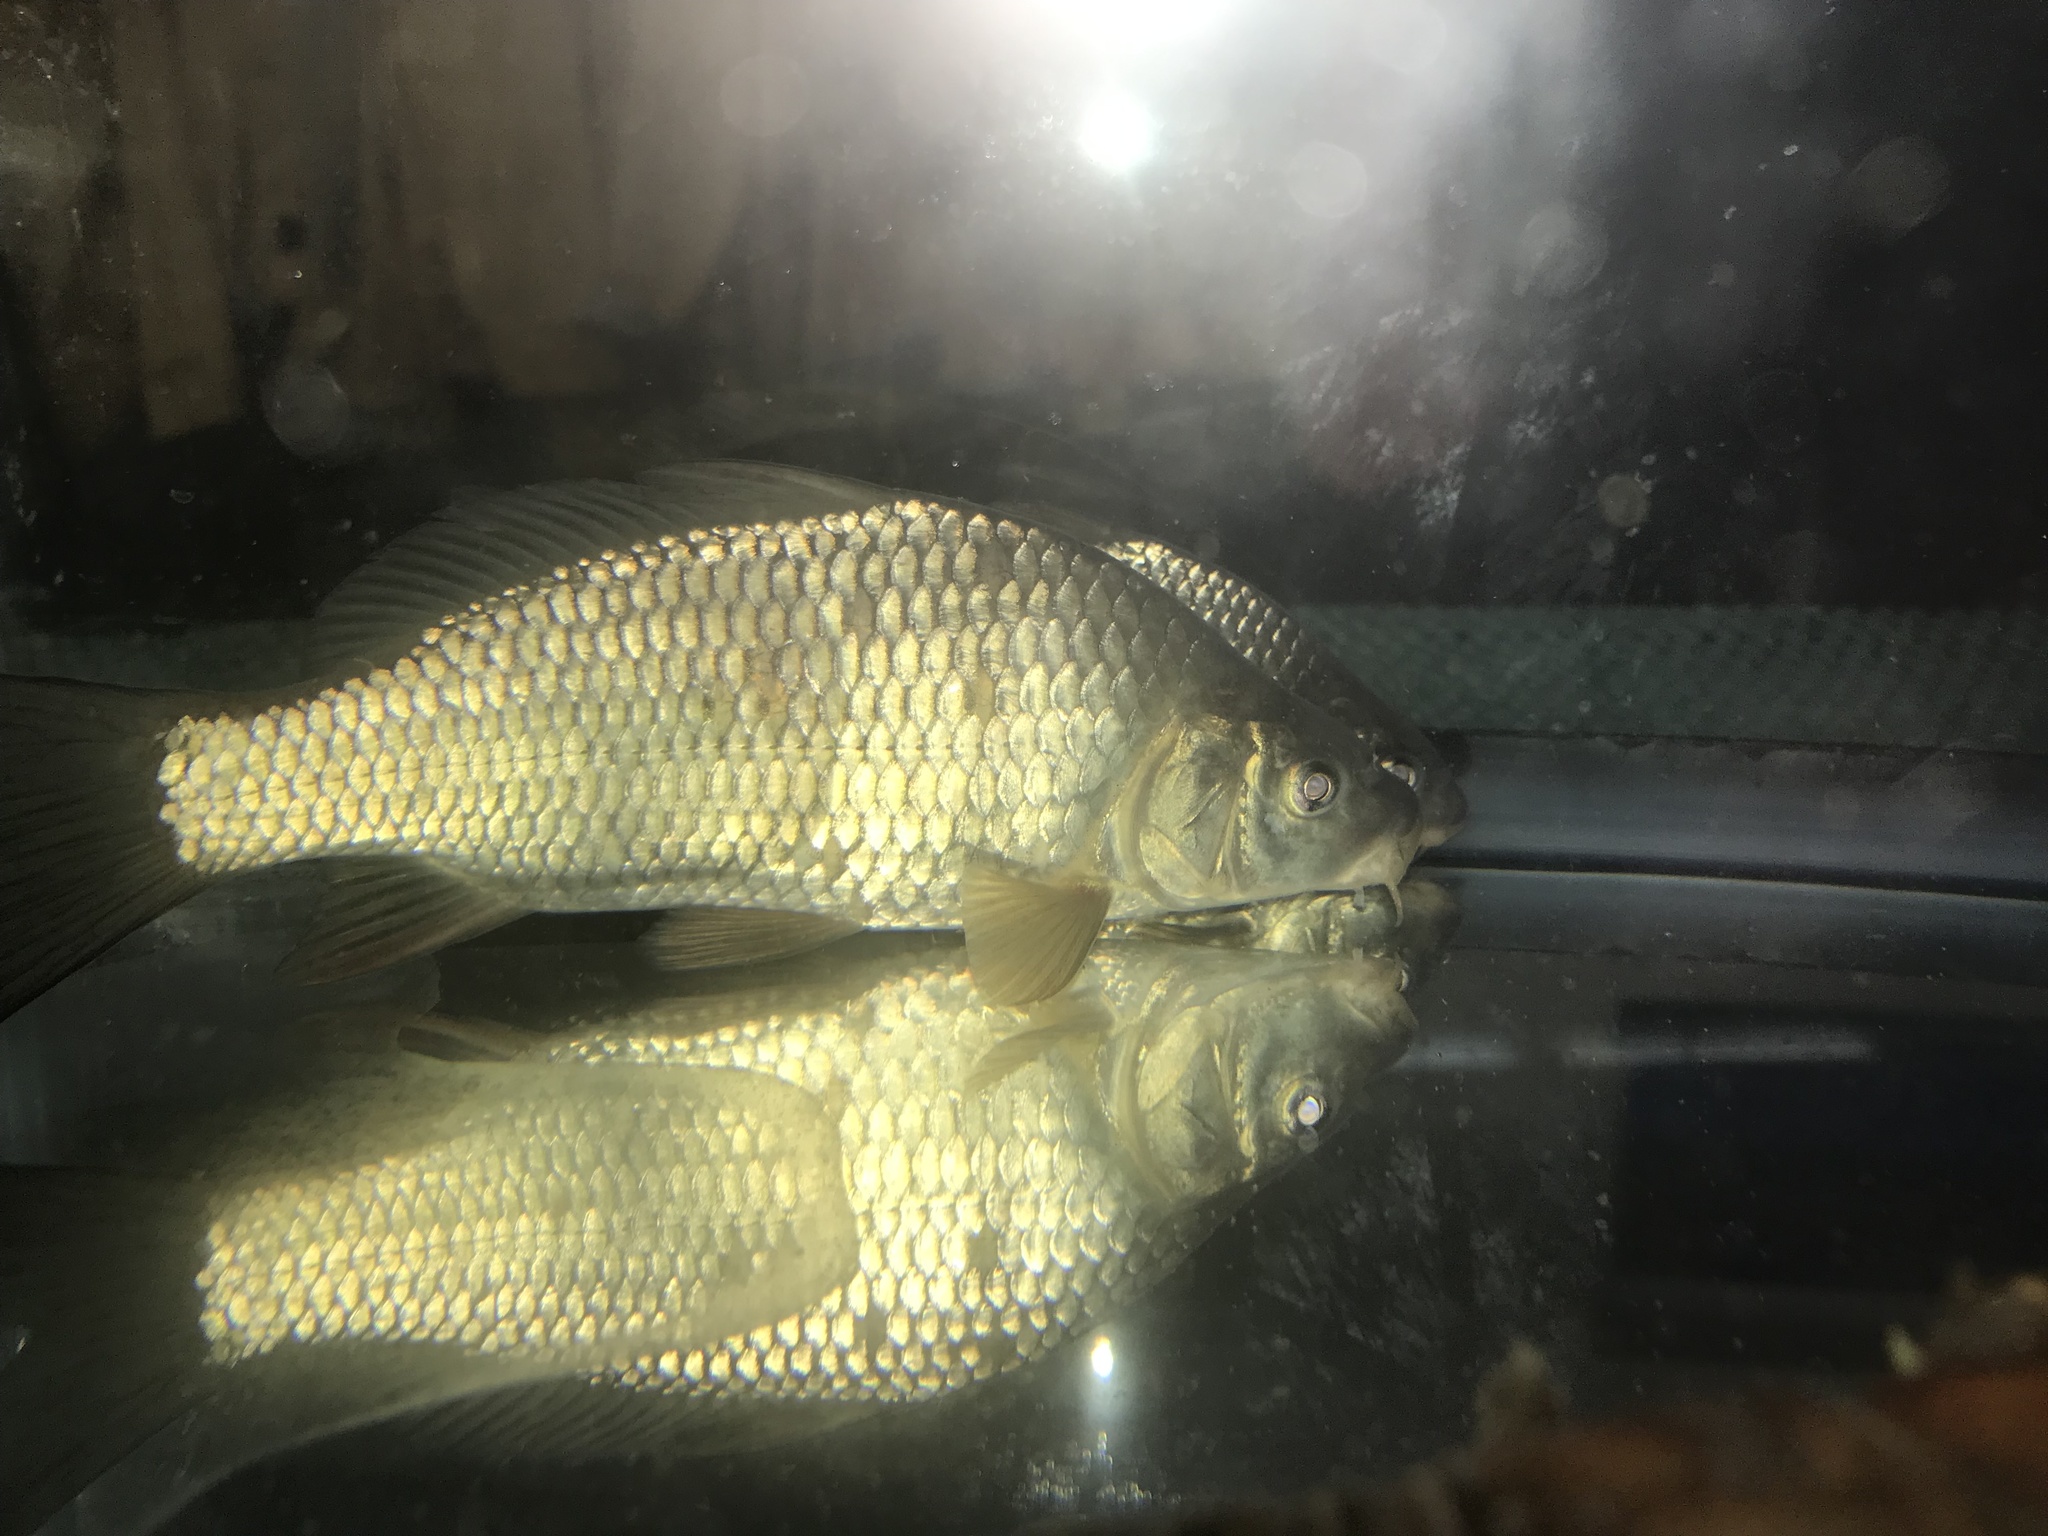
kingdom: Animalia
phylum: Chordata
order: Cypriniformes
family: Cyprinidae
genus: Cyprinus
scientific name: Cyprinus carpio
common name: Common carp
